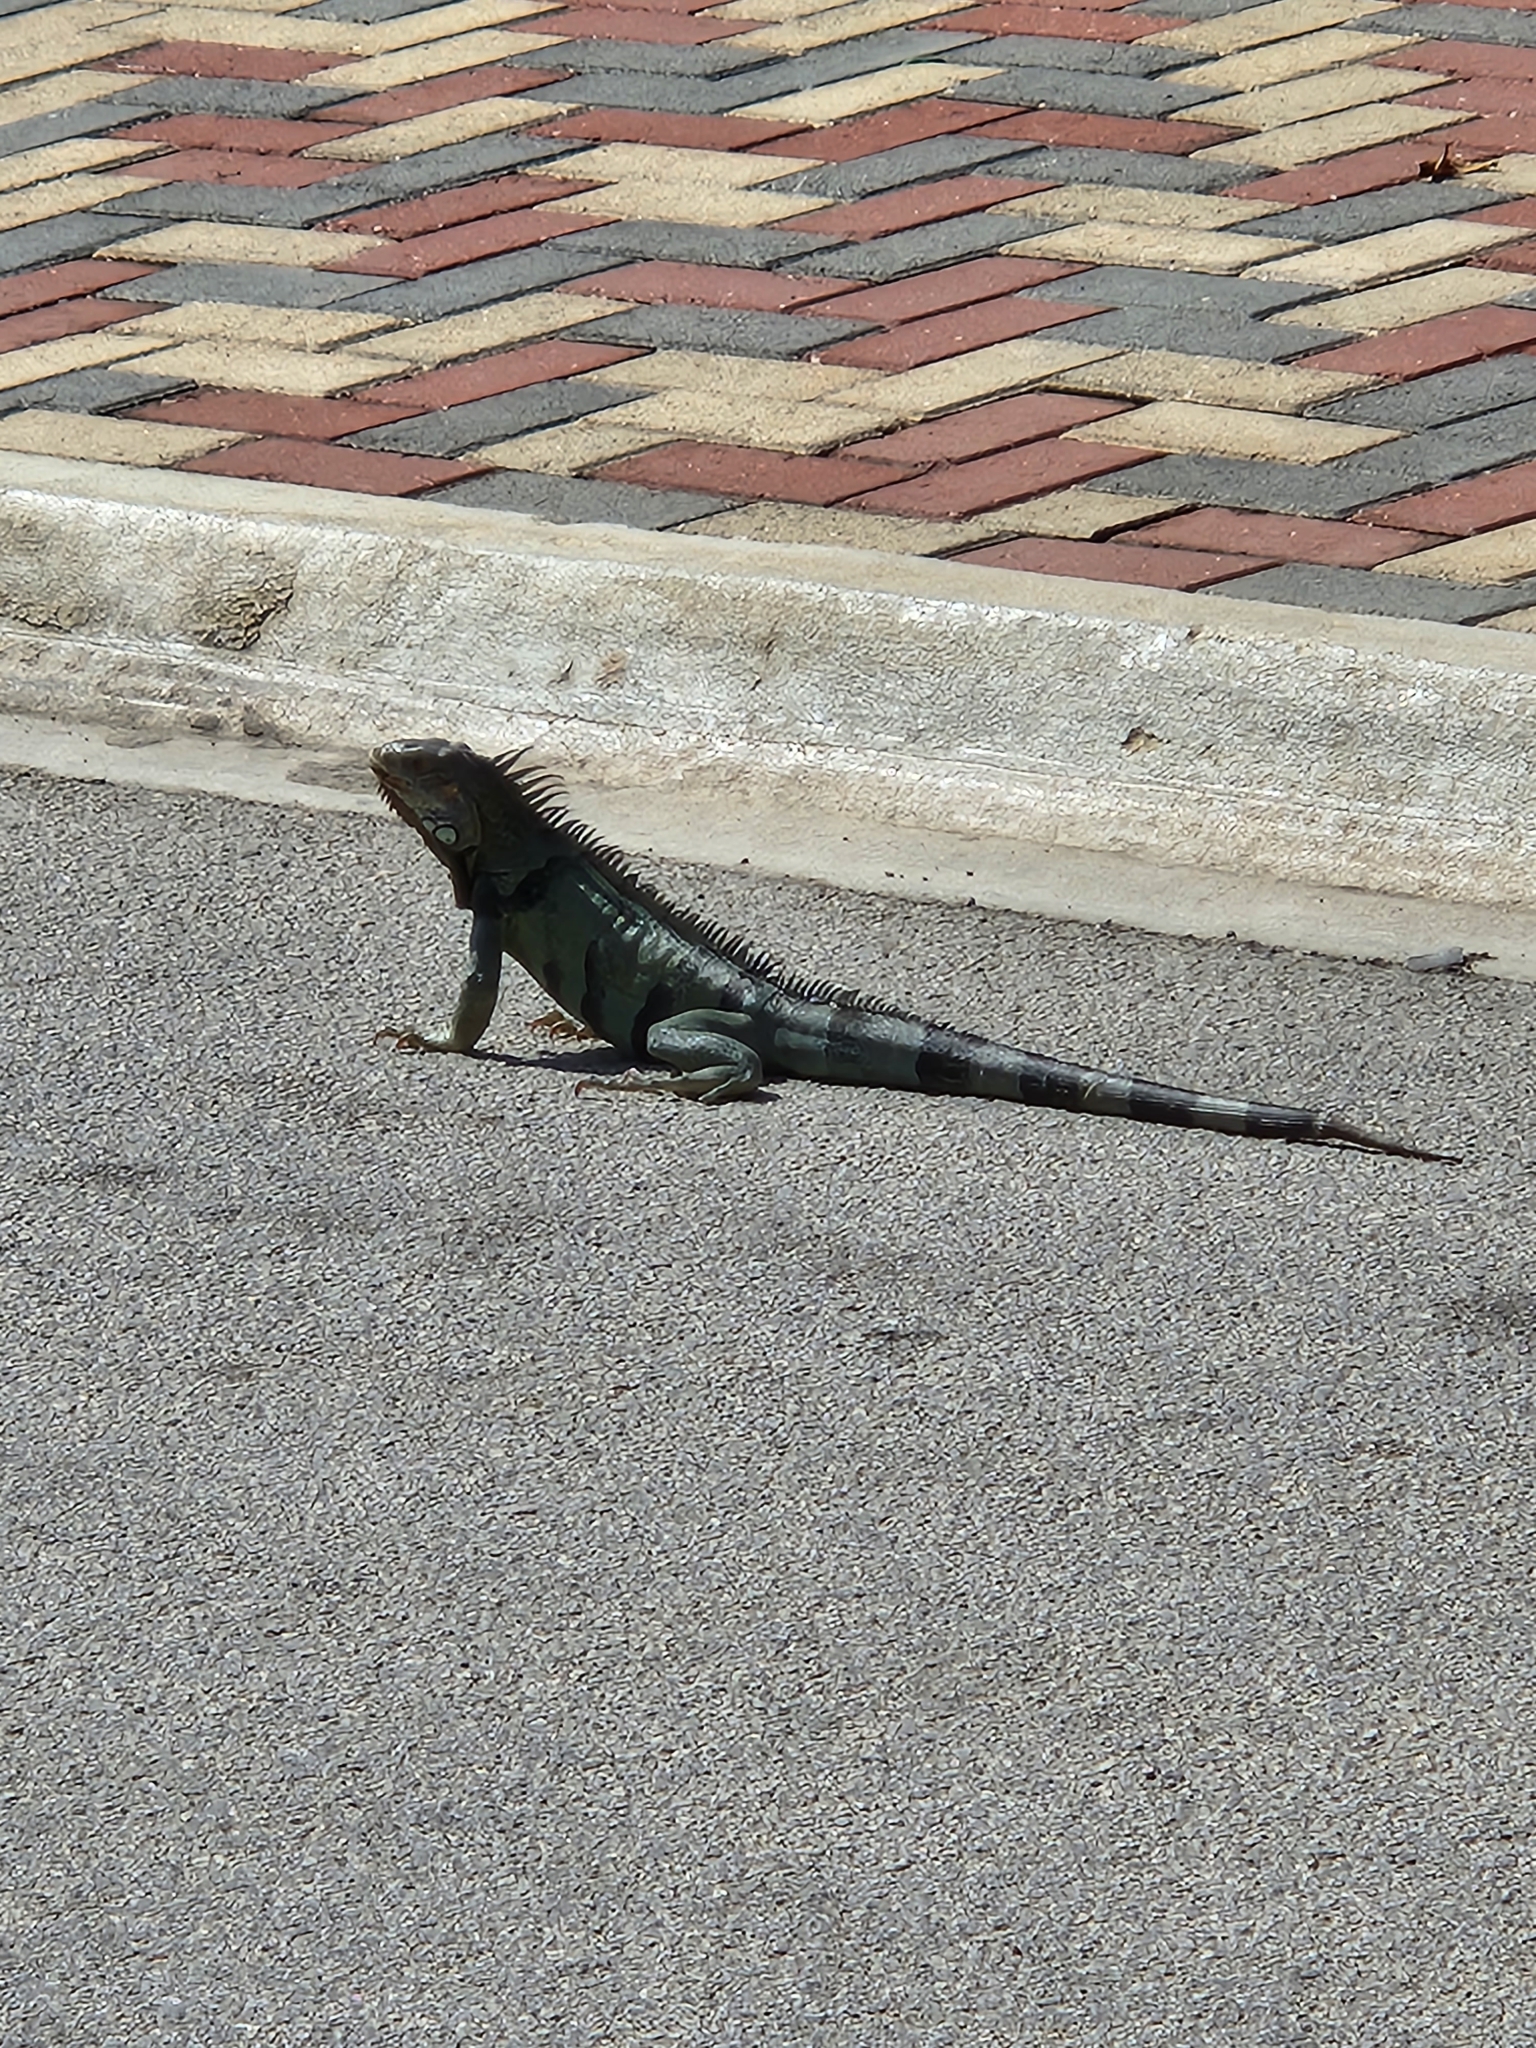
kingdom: Animalia
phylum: Chordata
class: Squamata
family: Iguanidae
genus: Iguana
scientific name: Iguana iguana
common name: Green iguana
